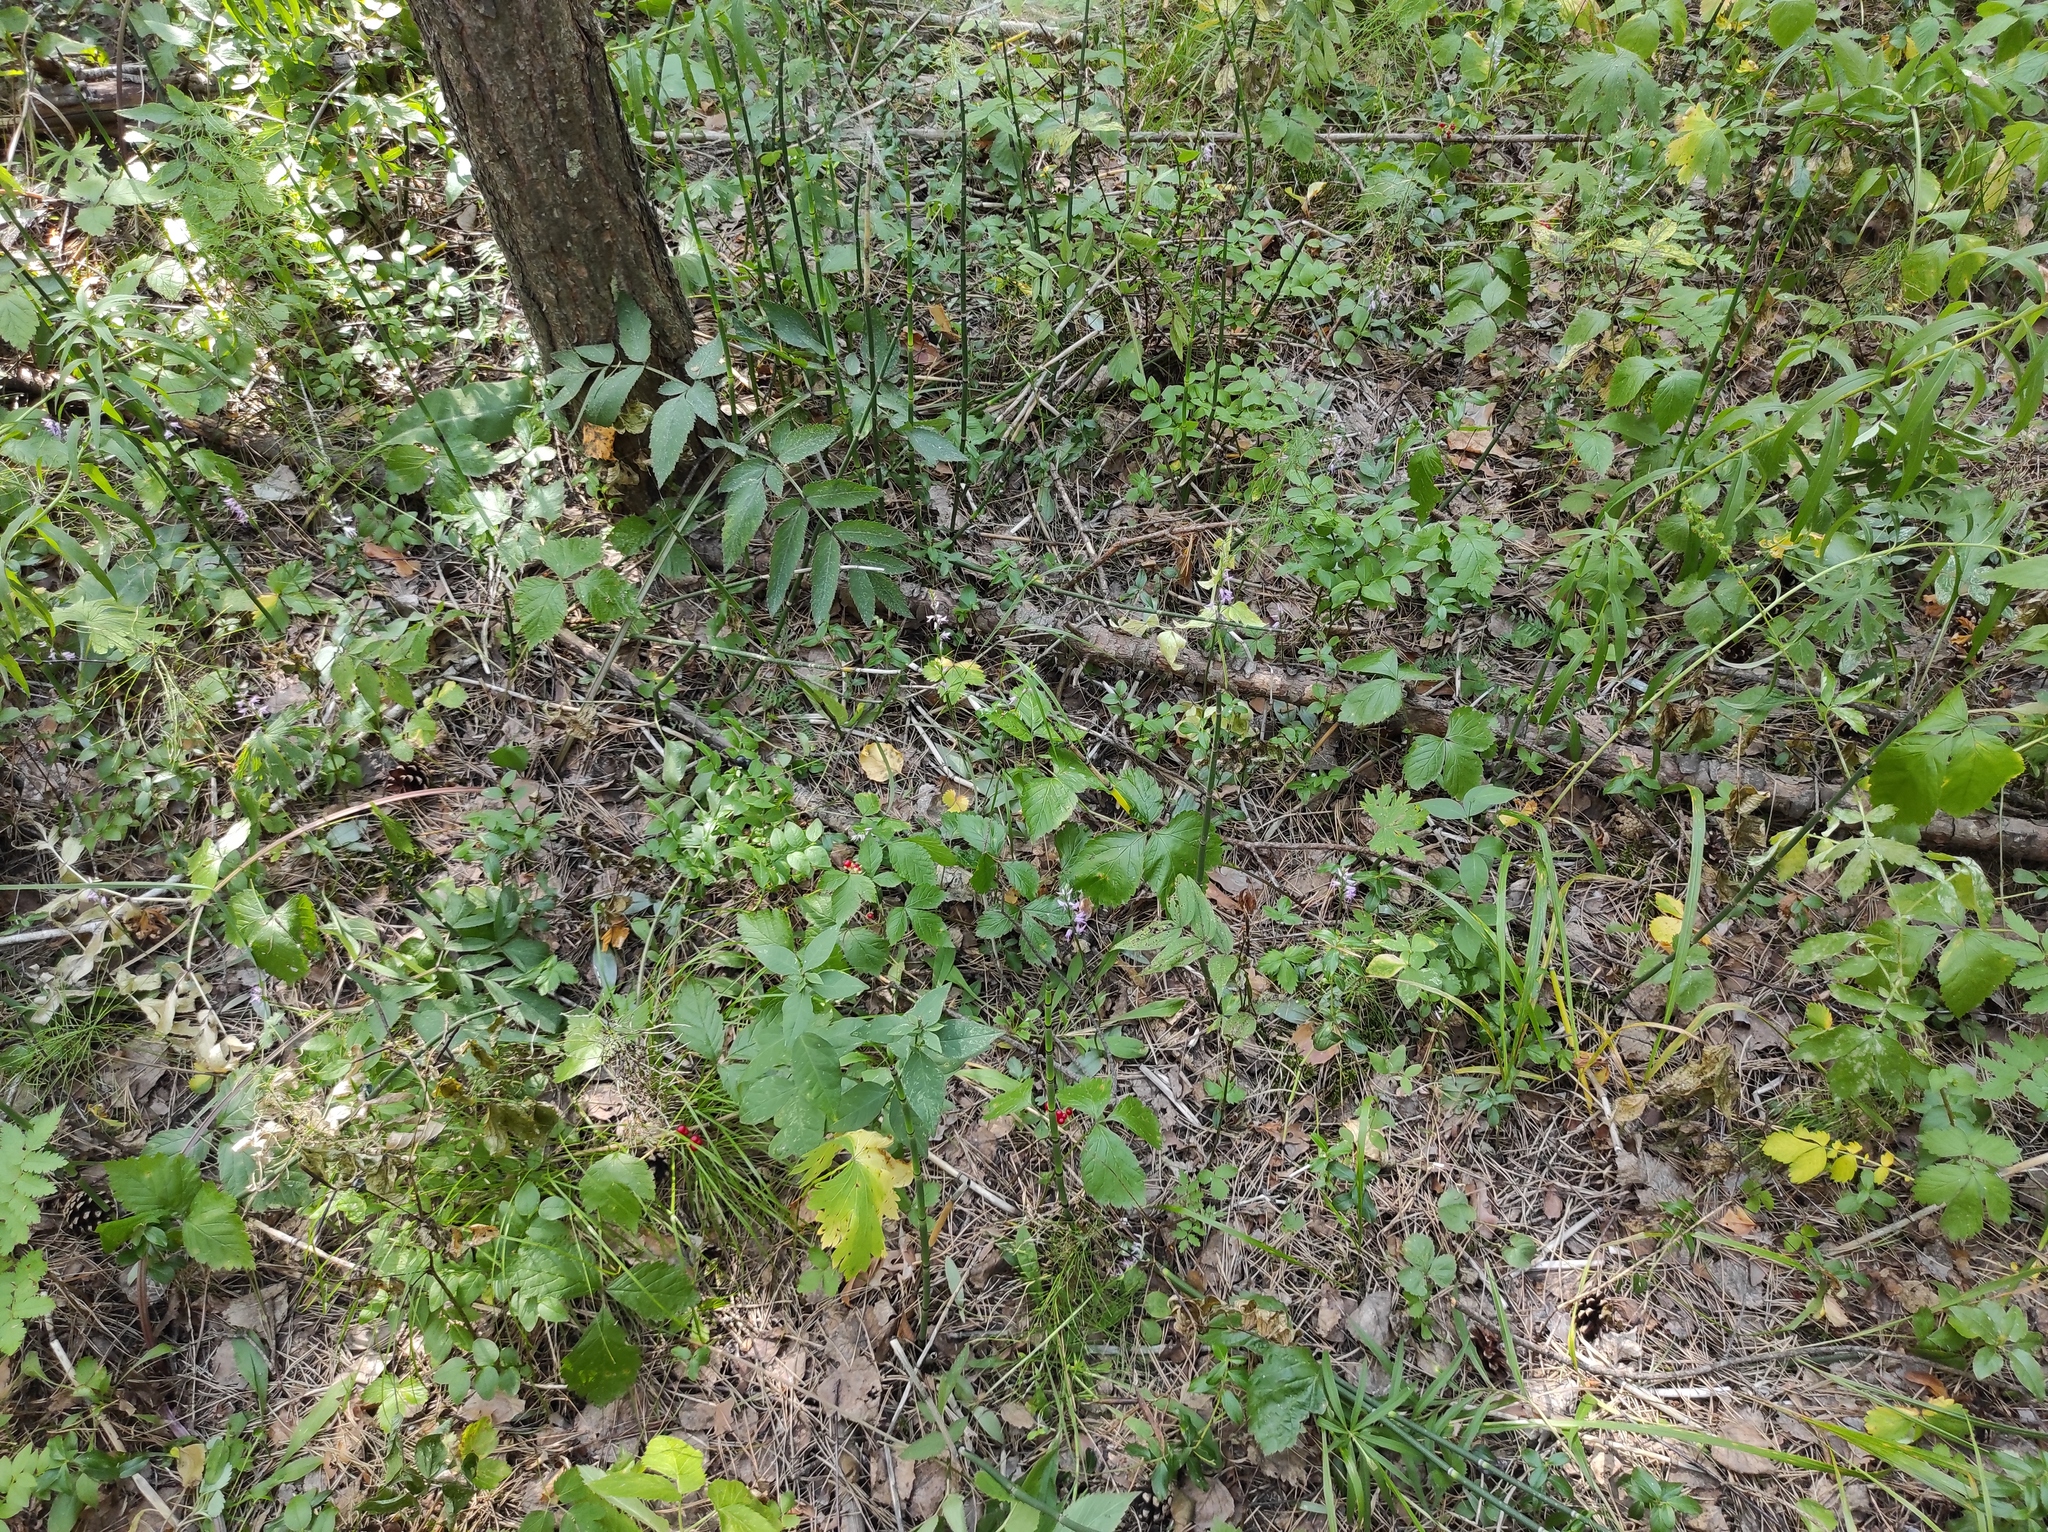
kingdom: Plantae
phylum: Tracheophyta
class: Liliopsida
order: Asparagales
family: Orchidaceae
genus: Hemipilia
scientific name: Hemipilia cucullata
